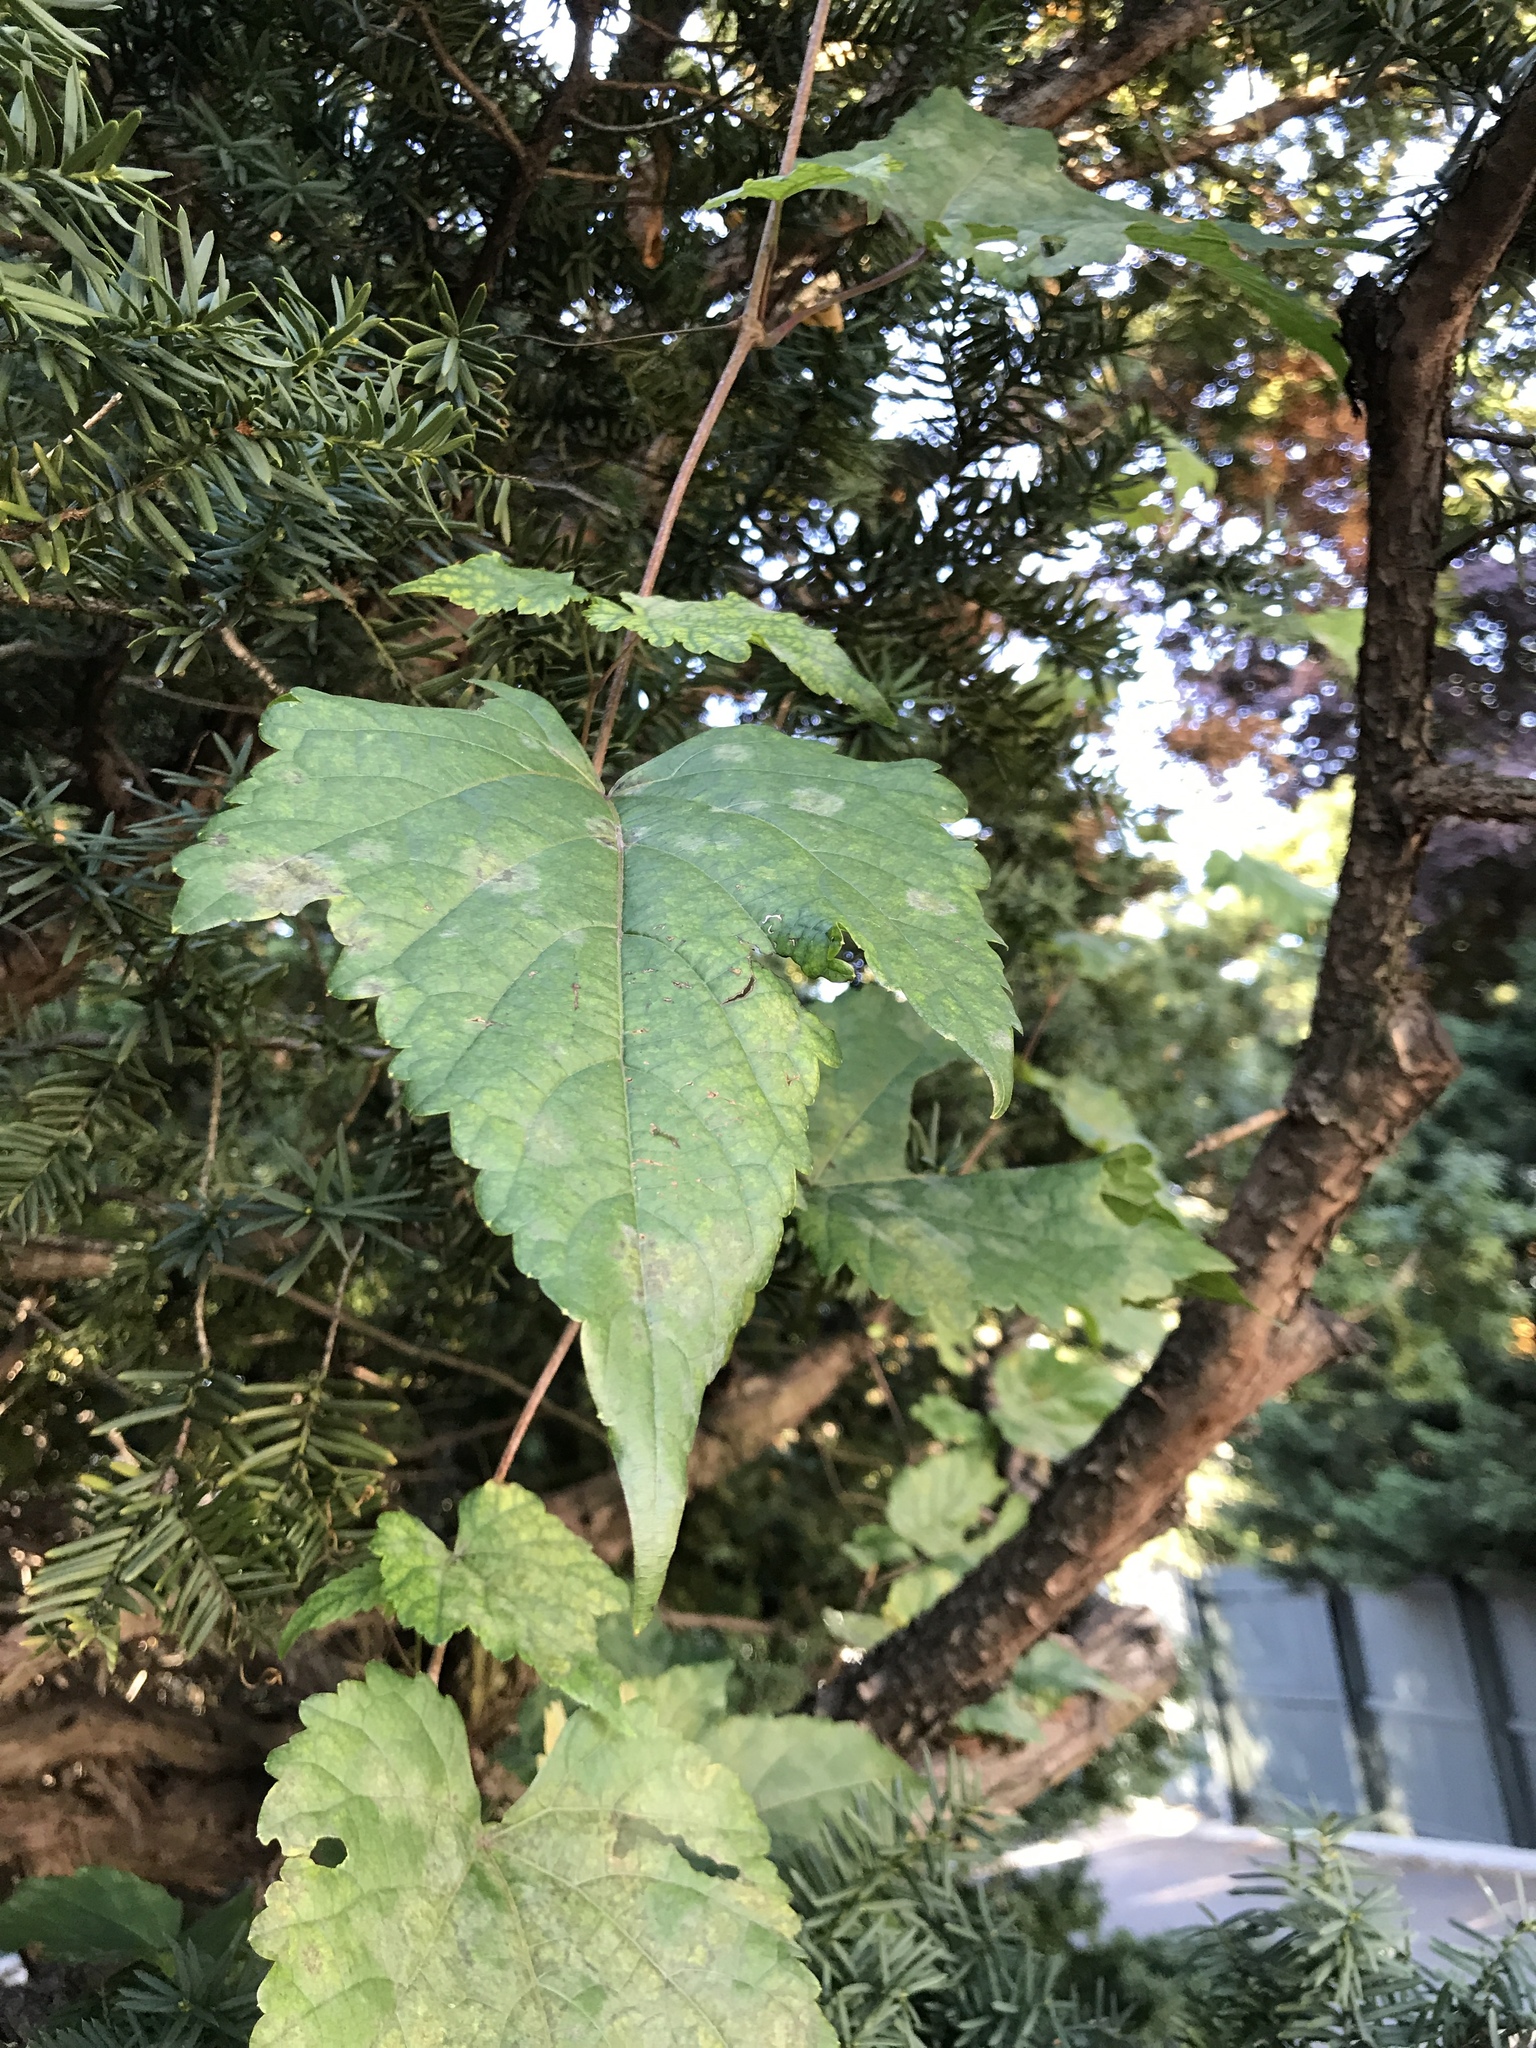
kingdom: Plantae
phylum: Tracheophyta
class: Magnoliopsida
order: Vitales
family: Vitaceae
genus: Ampelopsis
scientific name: Ampelopsis glandulosa
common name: Amur peppervine
